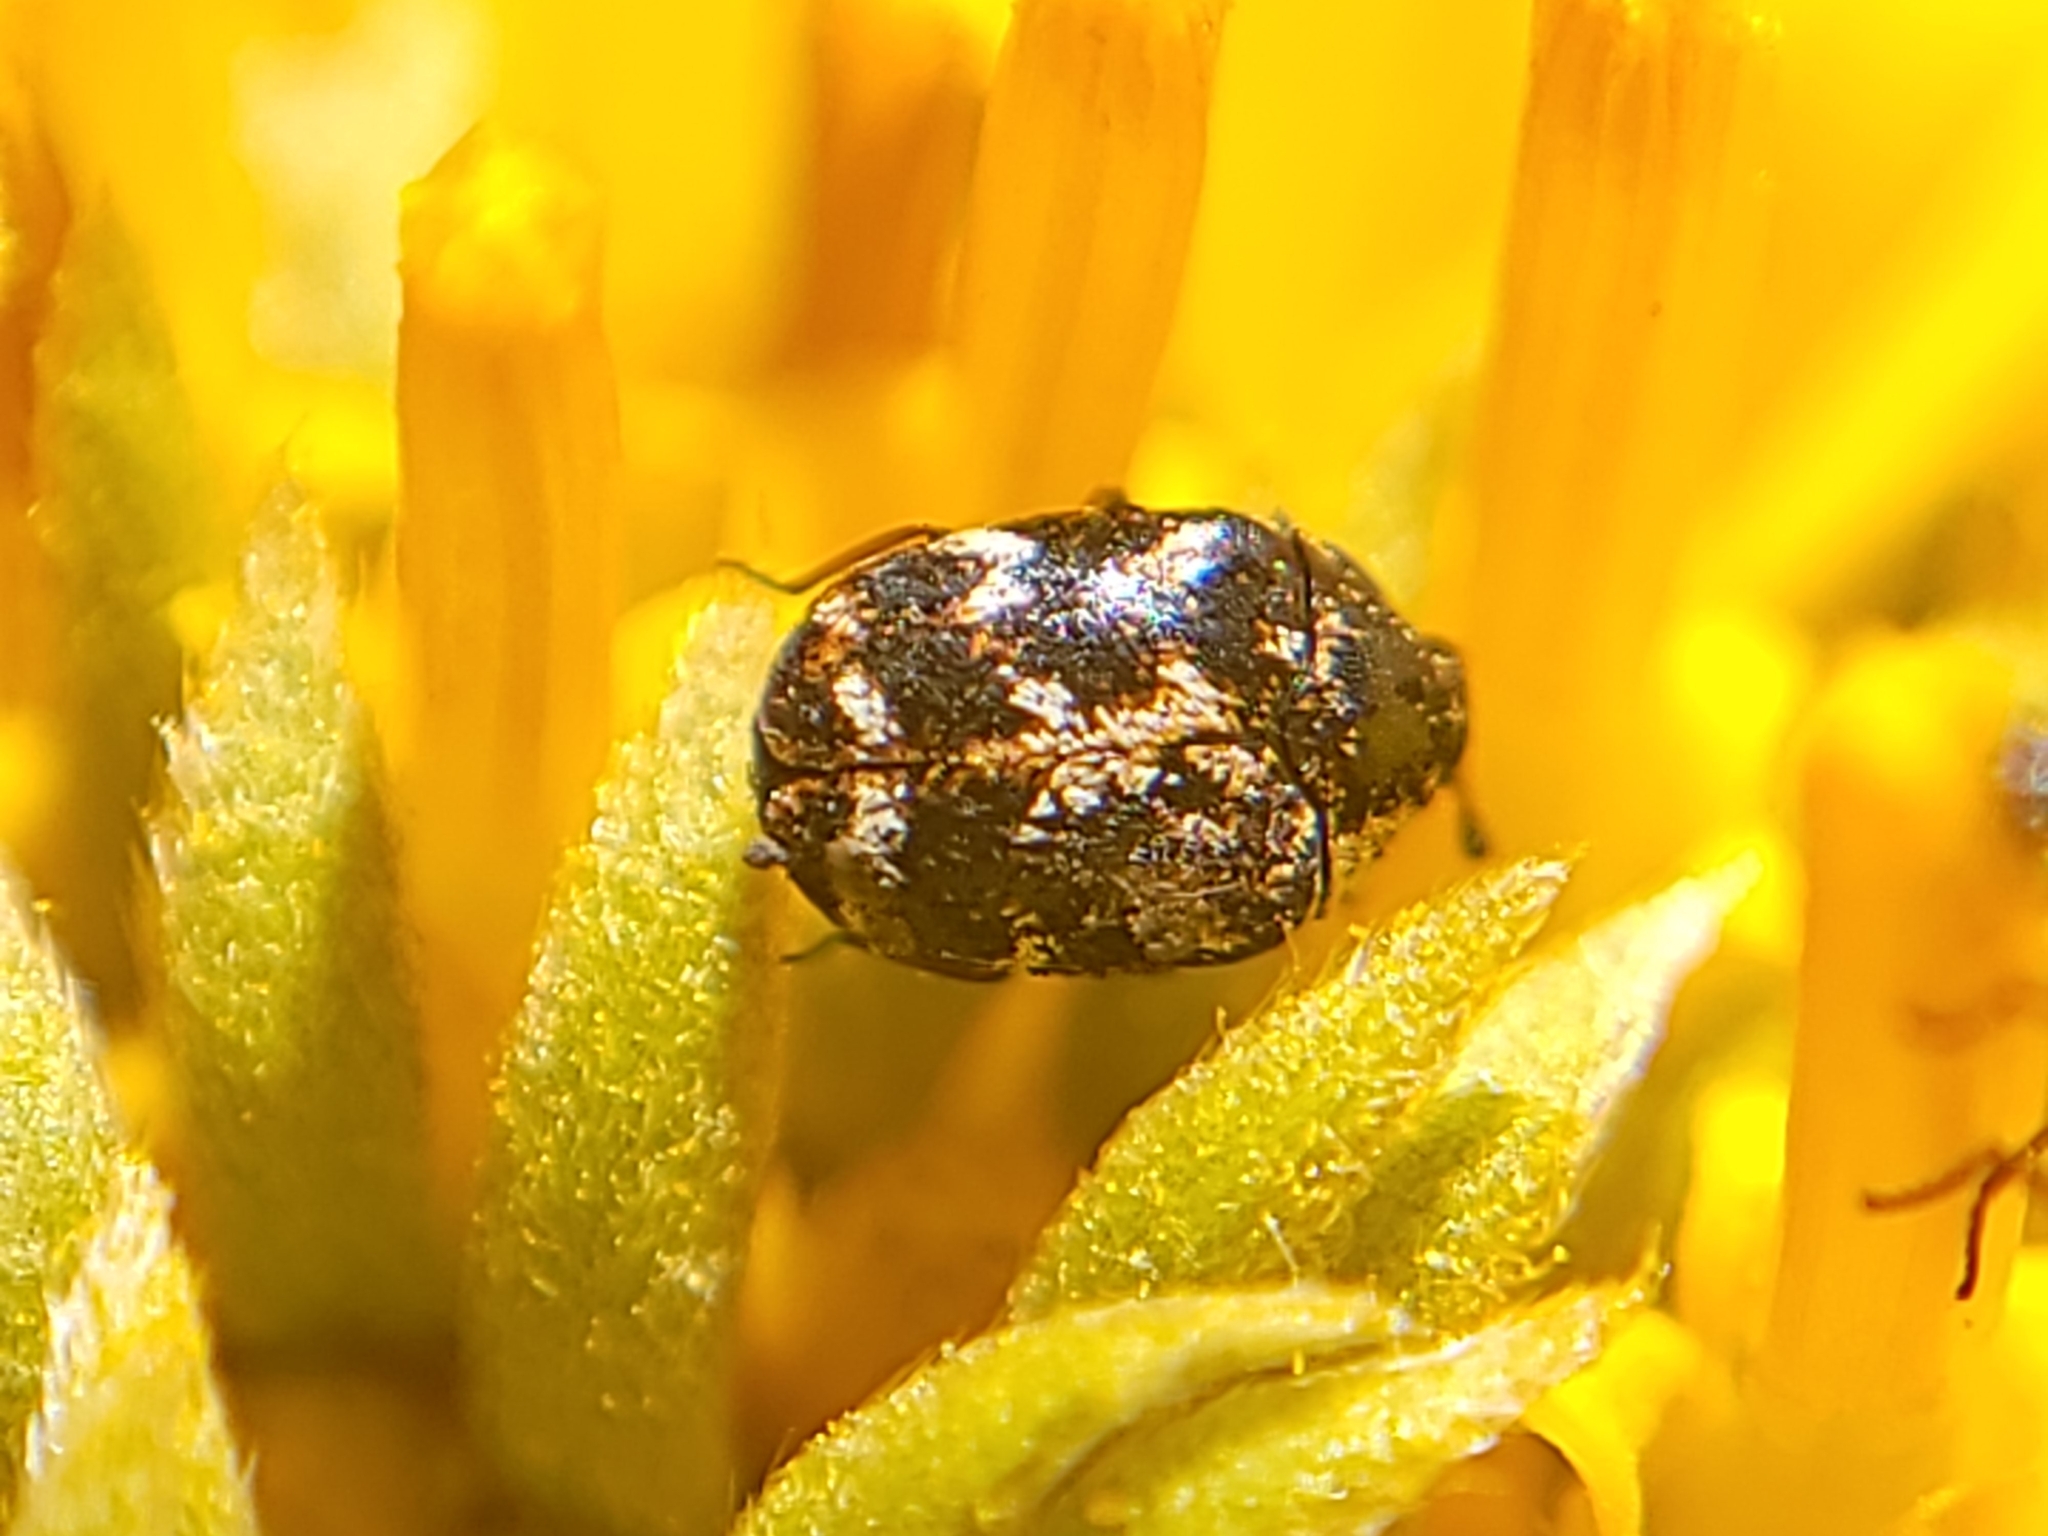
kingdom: Animalia
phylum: Arthropoda
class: Insecta
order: Coleoptera
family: Dermestidae
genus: Anthrenus
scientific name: Anthrenus lepidus
